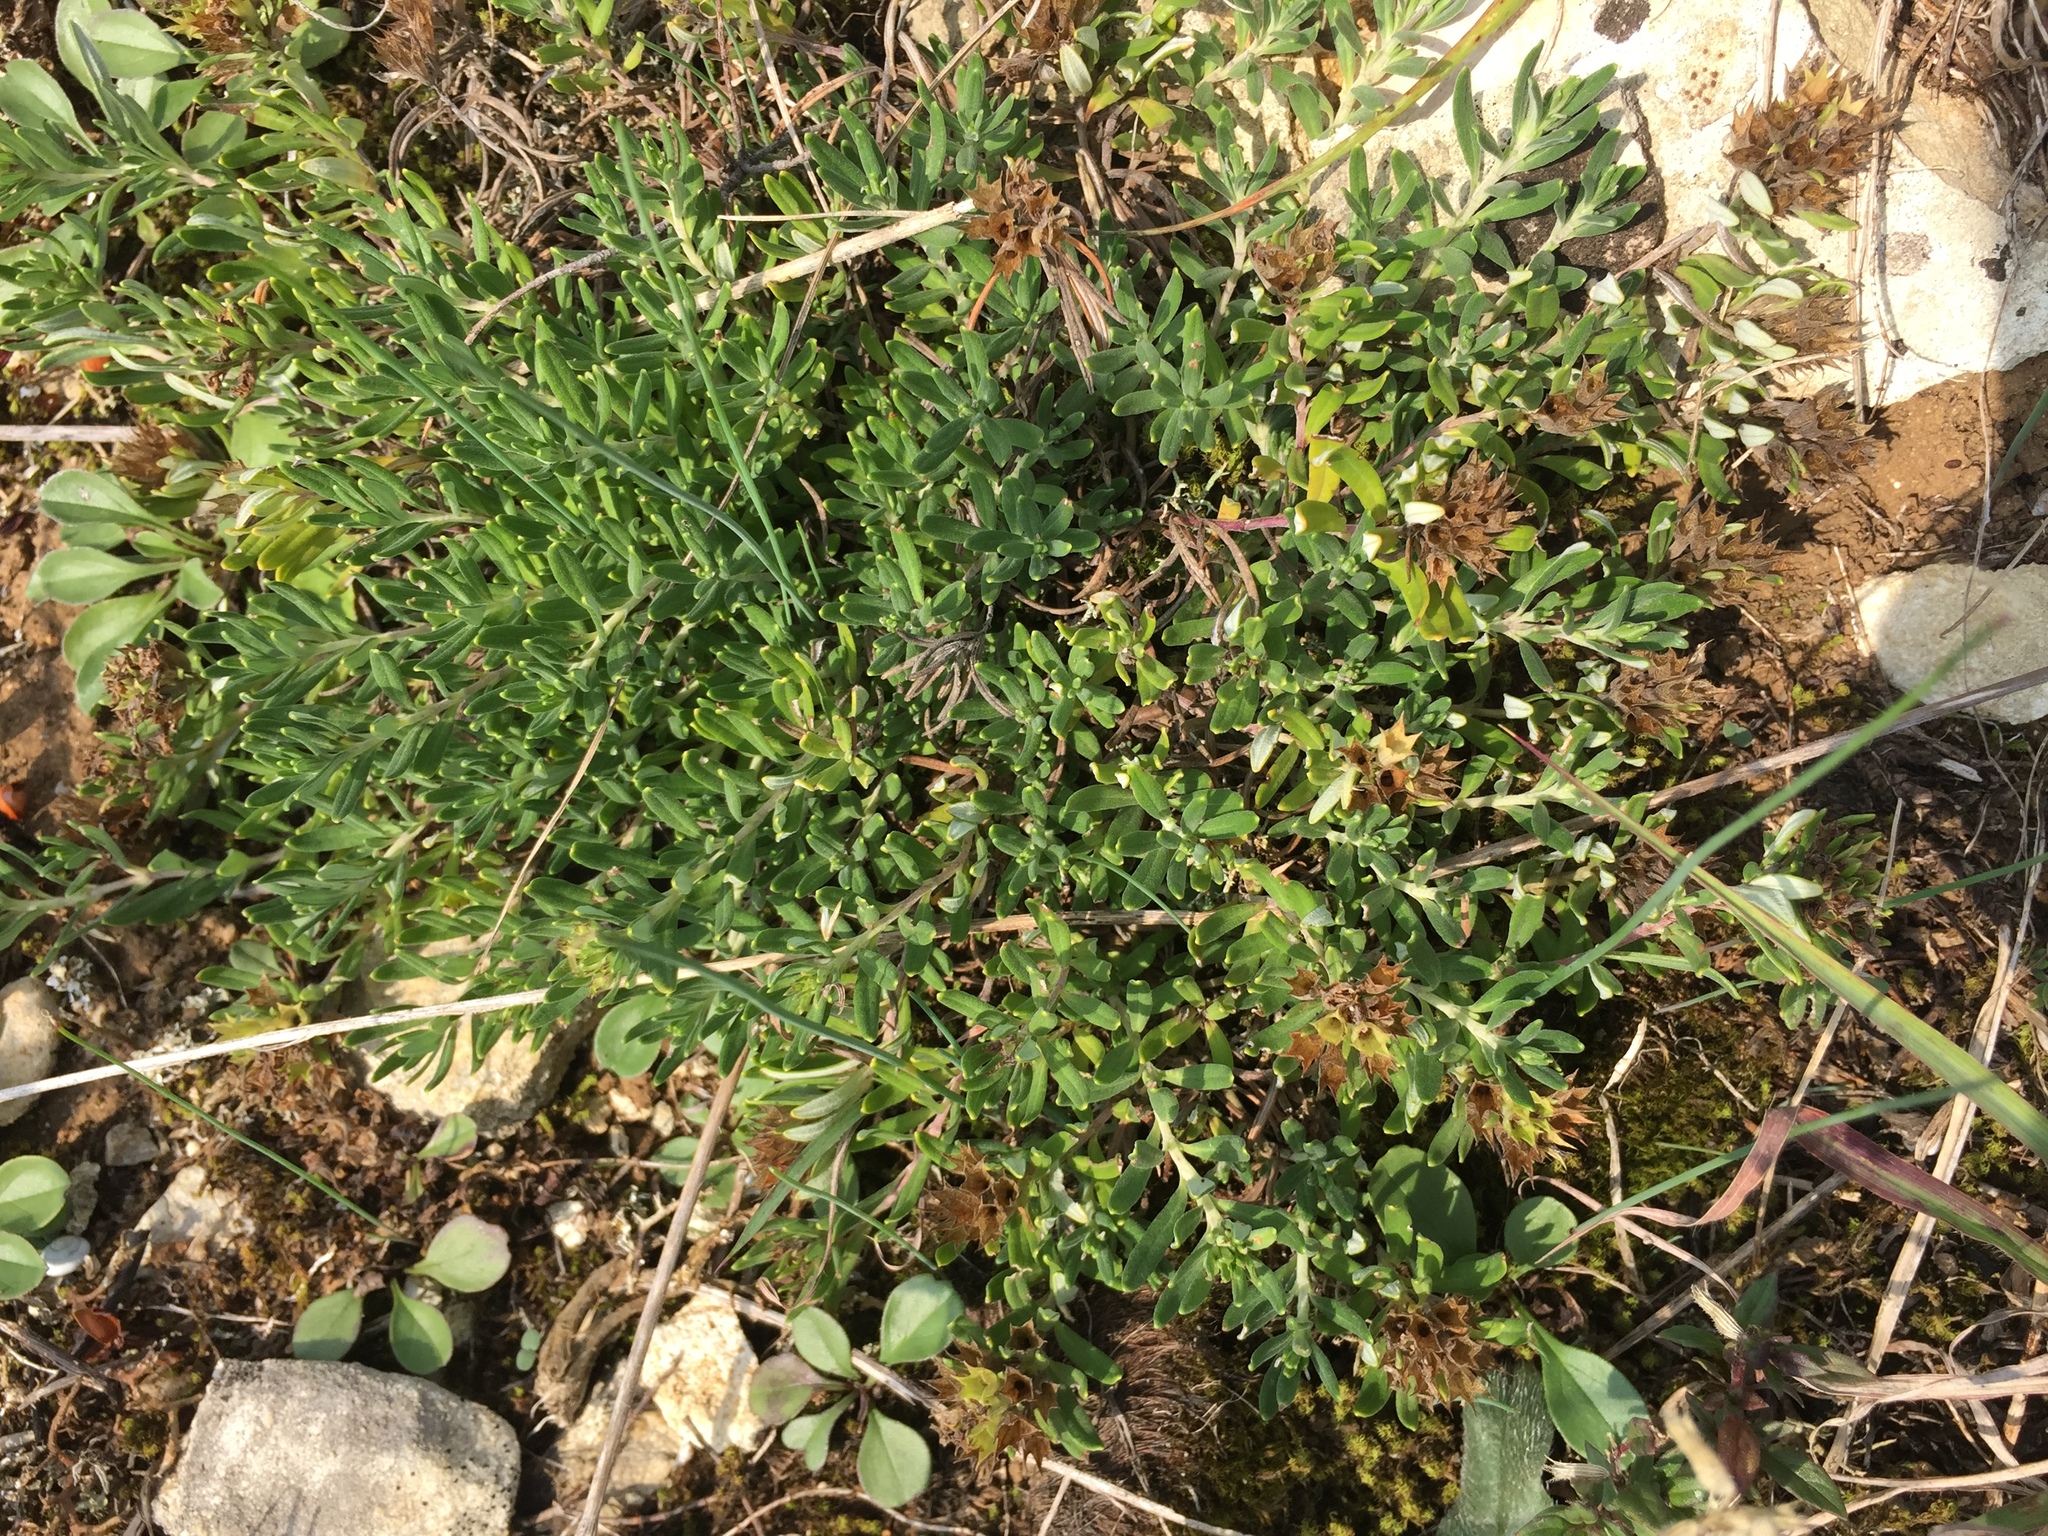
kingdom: Plantae
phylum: Tracheophyta
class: Magnoliopsida
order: Lamiales
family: Lamiaceae
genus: Teucrium
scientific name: Teucrium montanum
